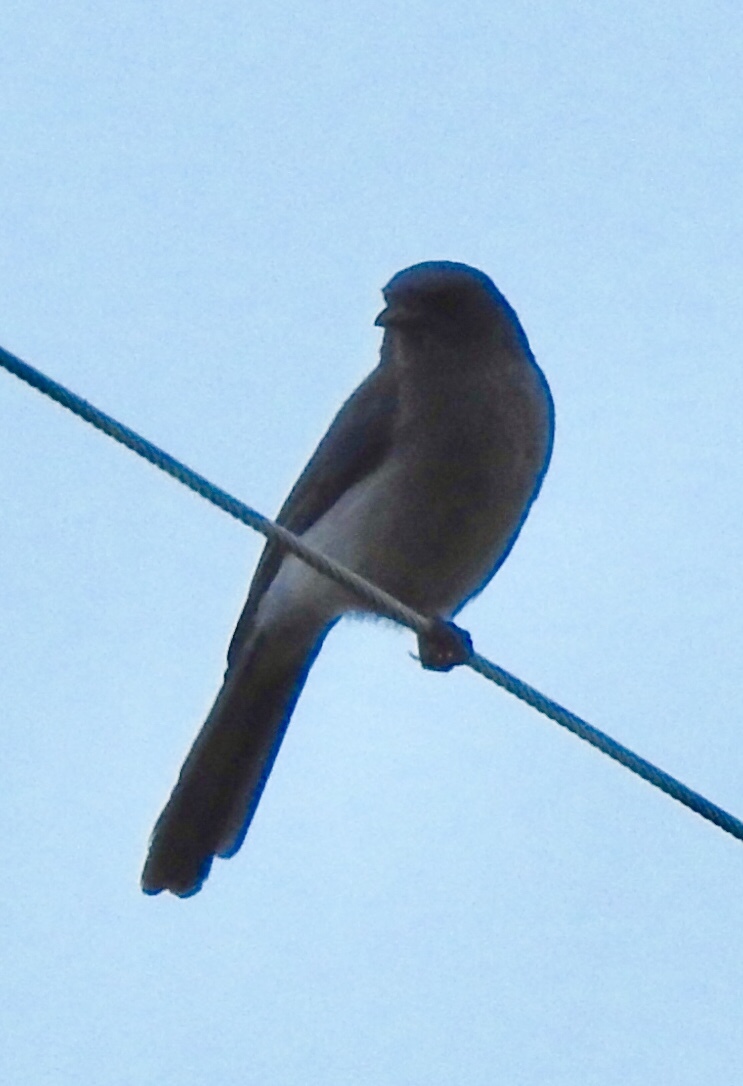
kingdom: Animalia
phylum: Chordata
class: Aves
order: Passeriformes
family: Corvidae
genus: Aphelocoma
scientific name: Aphelocoma wollweberi
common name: Mexican jay
